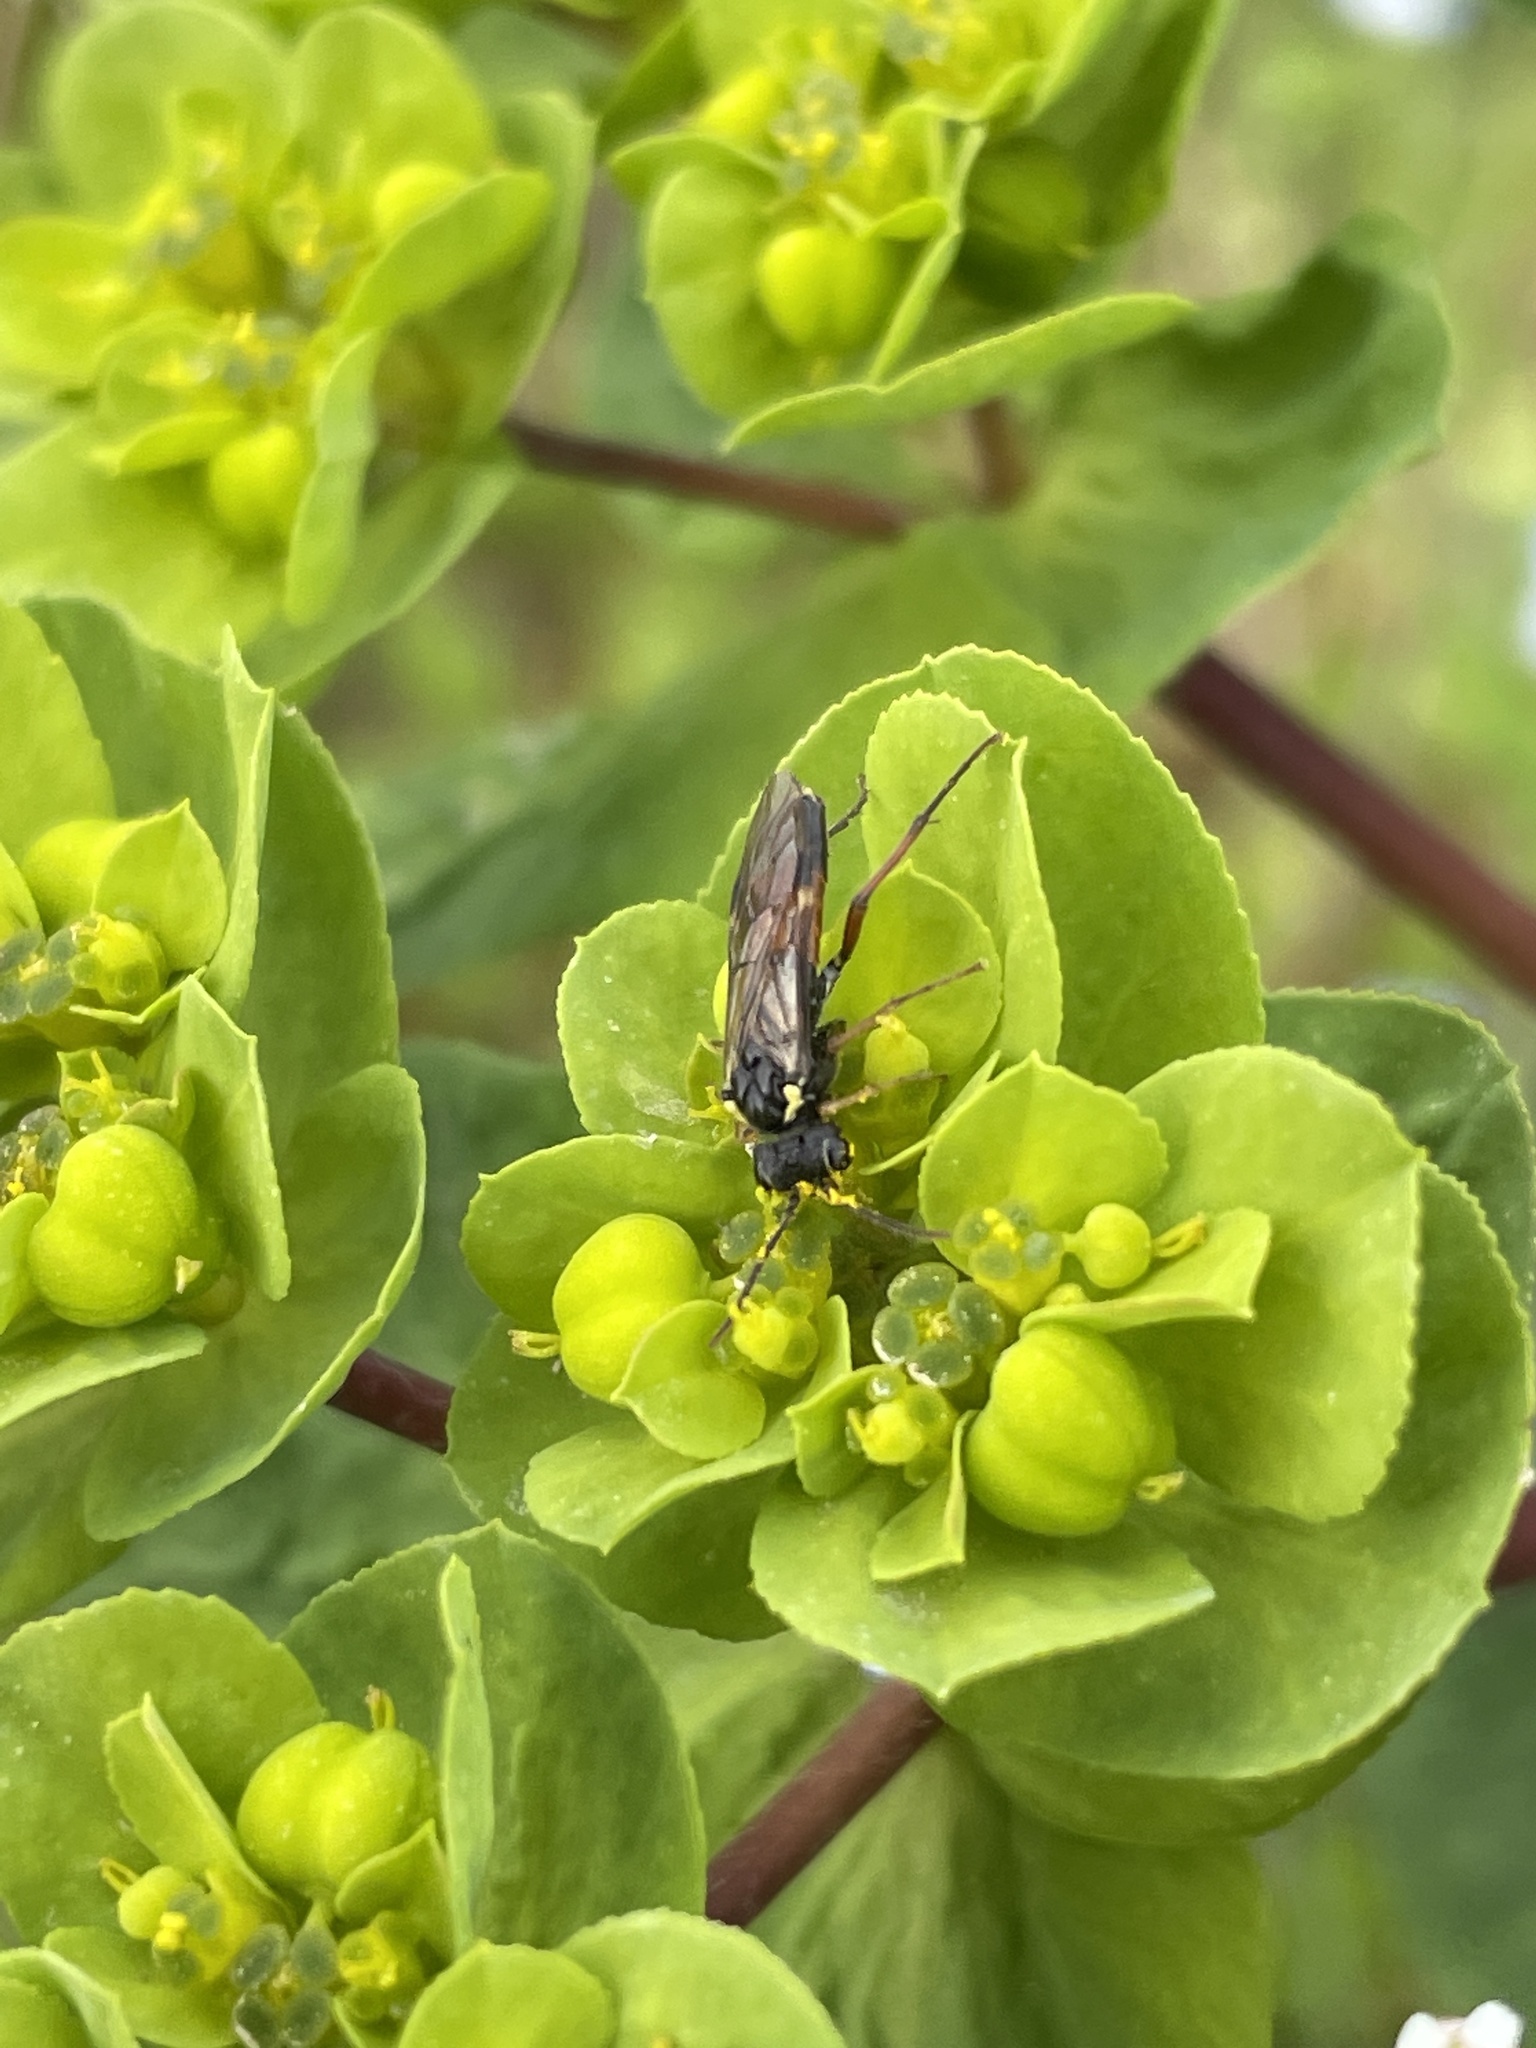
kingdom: Animalia
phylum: Arthropoda
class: Insecta
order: Hymenoptera
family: Tenthredinidae
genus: Aglaostigma
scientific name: Aglaostigma aucupariae
